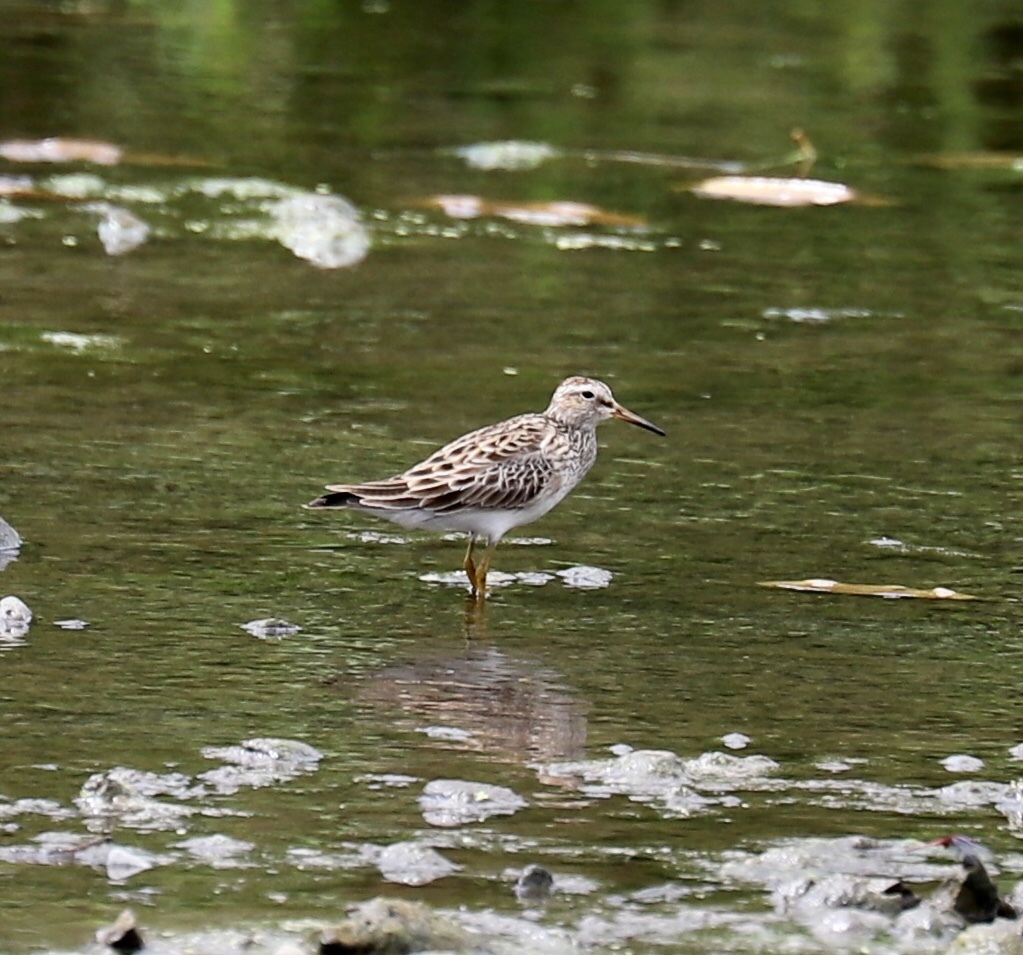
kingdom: Animalia
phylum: Chordata
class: Aves
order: Charadriiformes
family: Scolopacidae
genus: Calidris
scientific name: Calidris melanotos
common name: Pectoral sandpiper
